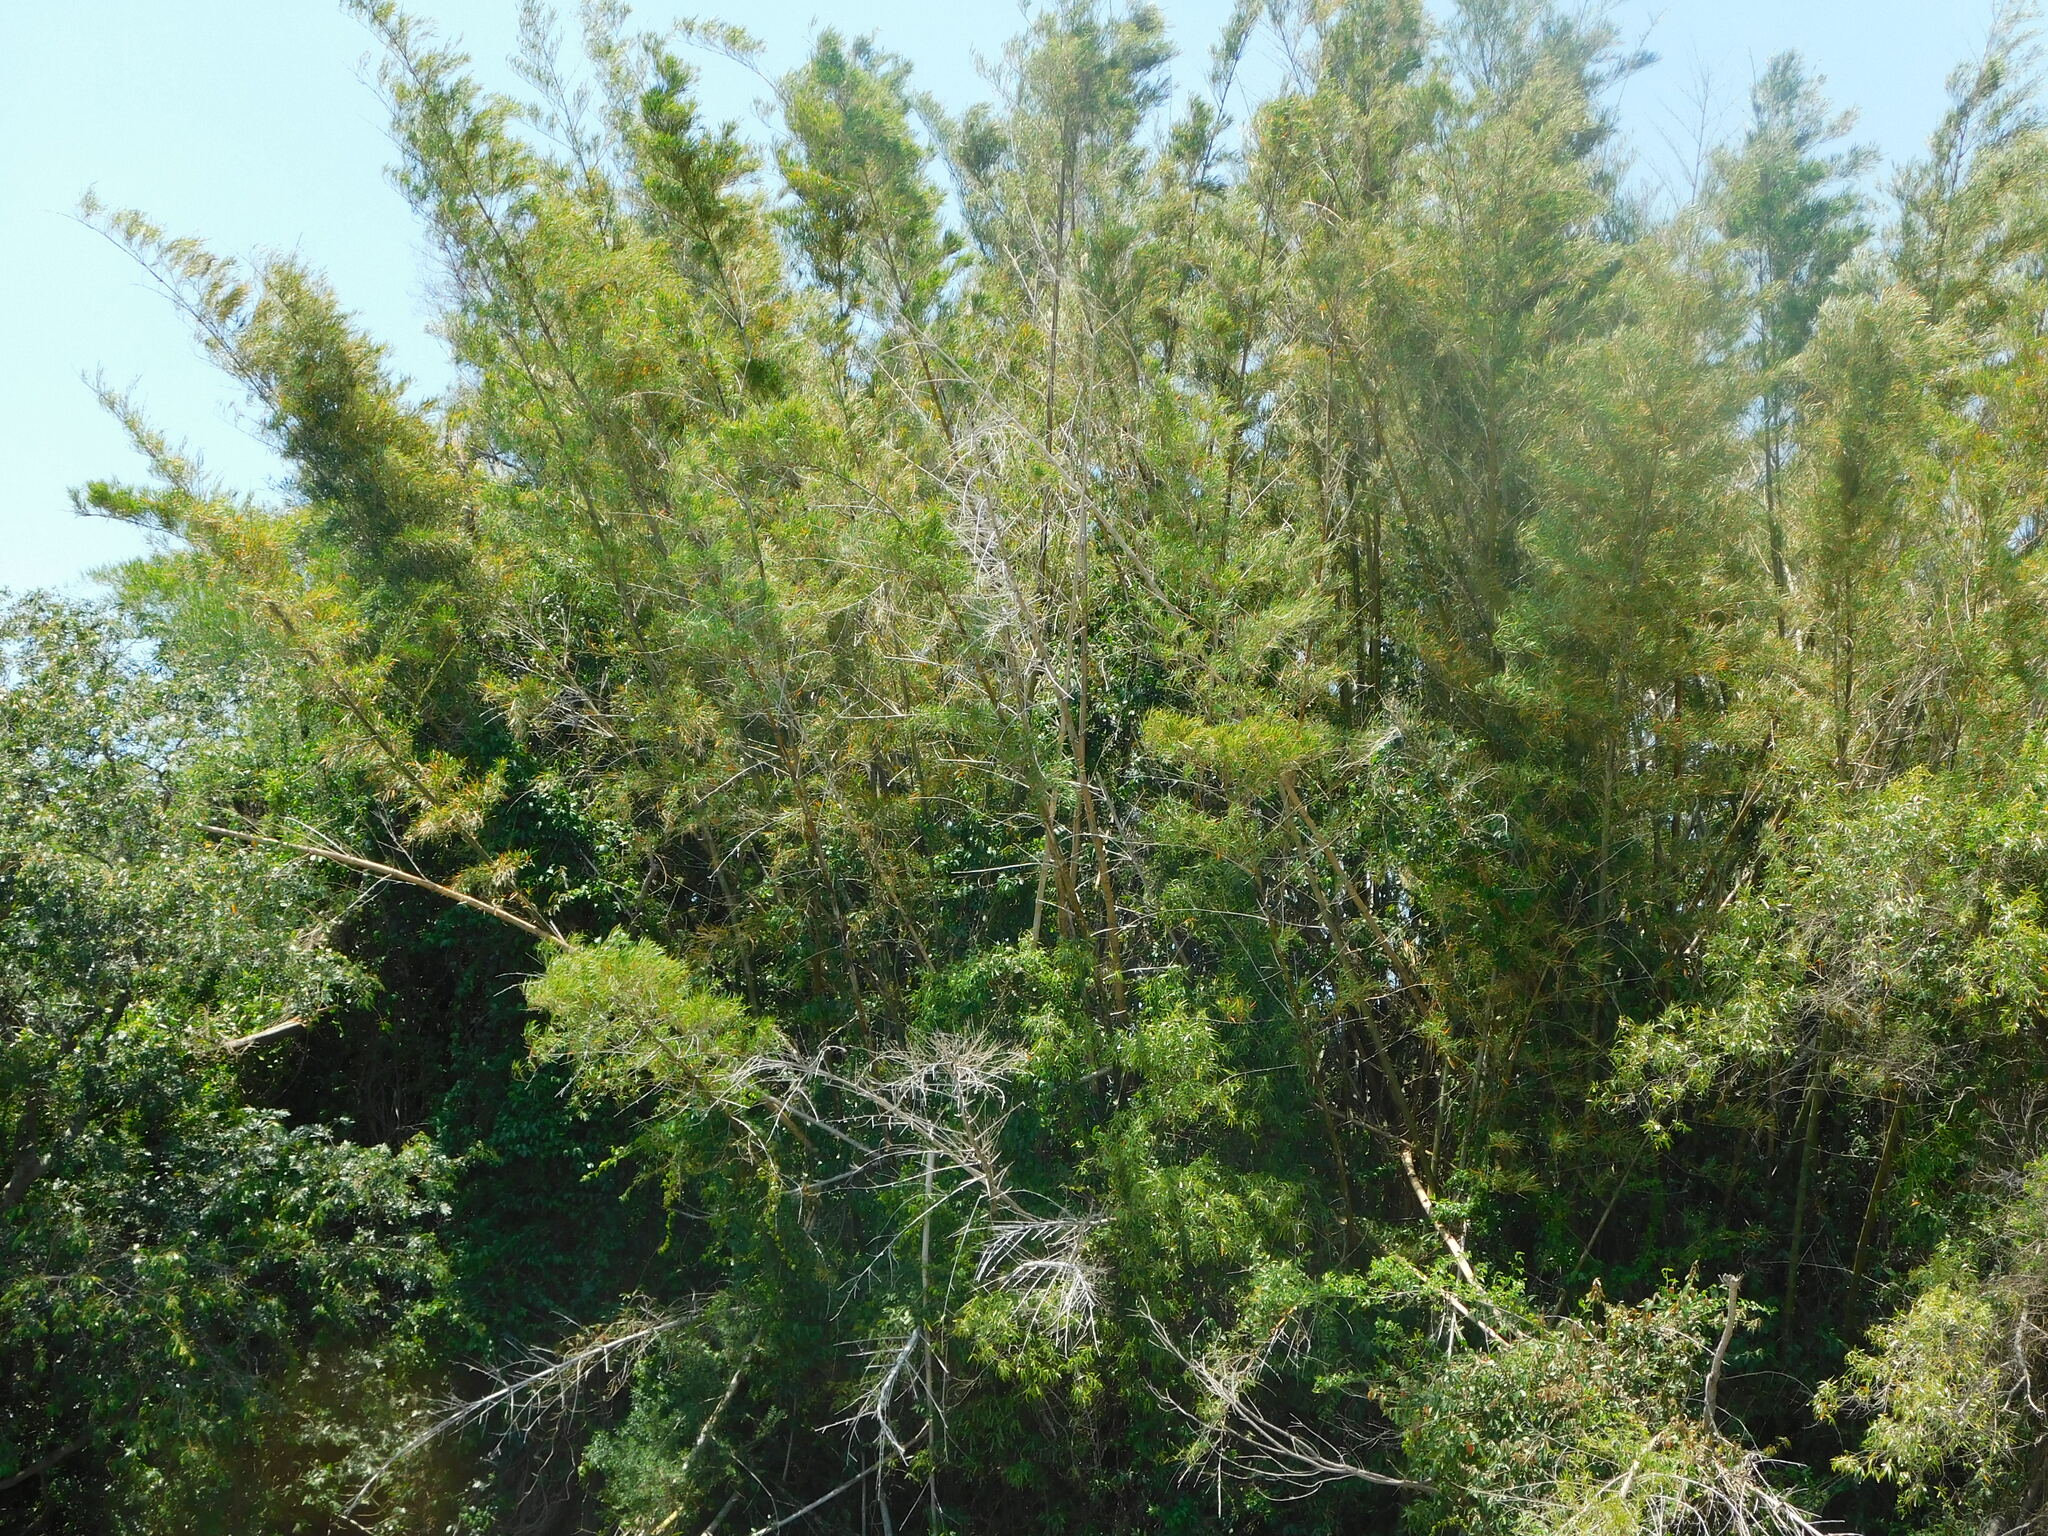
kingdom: Plantae
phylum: Tracheophyta
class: Liliopsida
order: Poales
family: Poaceae
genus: Guadua
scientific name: Guadua chacoensis
